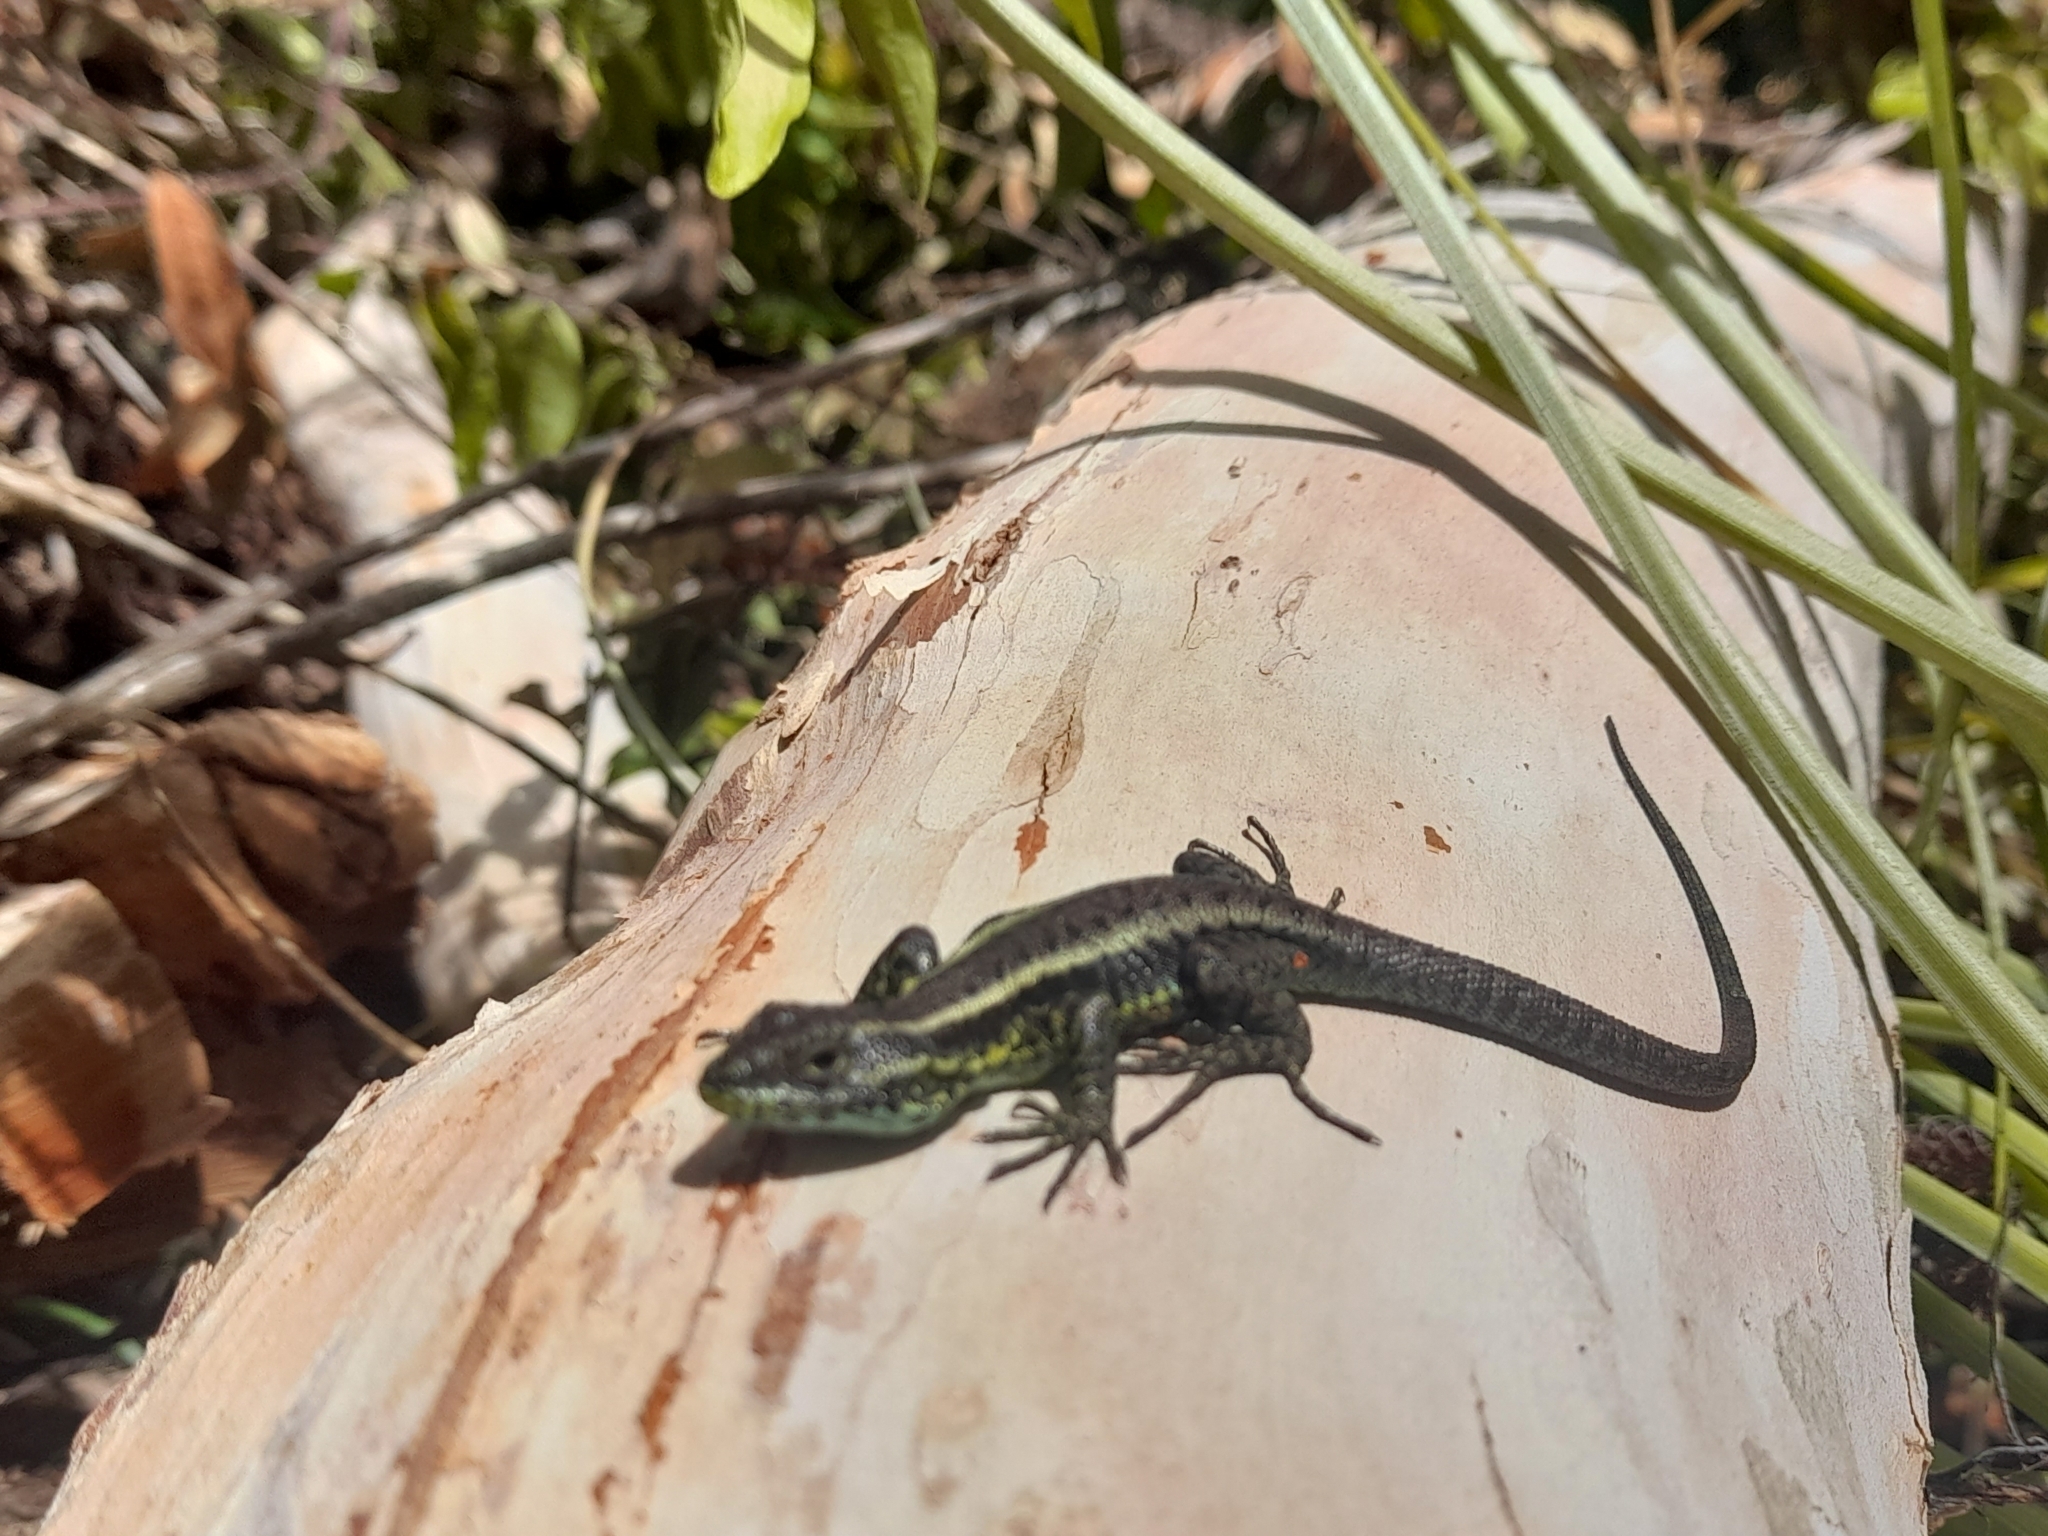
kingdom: Animalia
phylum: Chordata
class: Squamata
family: Liolaemidae
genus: Liolaemus
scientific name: Liolaemus pictus
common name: Painted tree iguana
